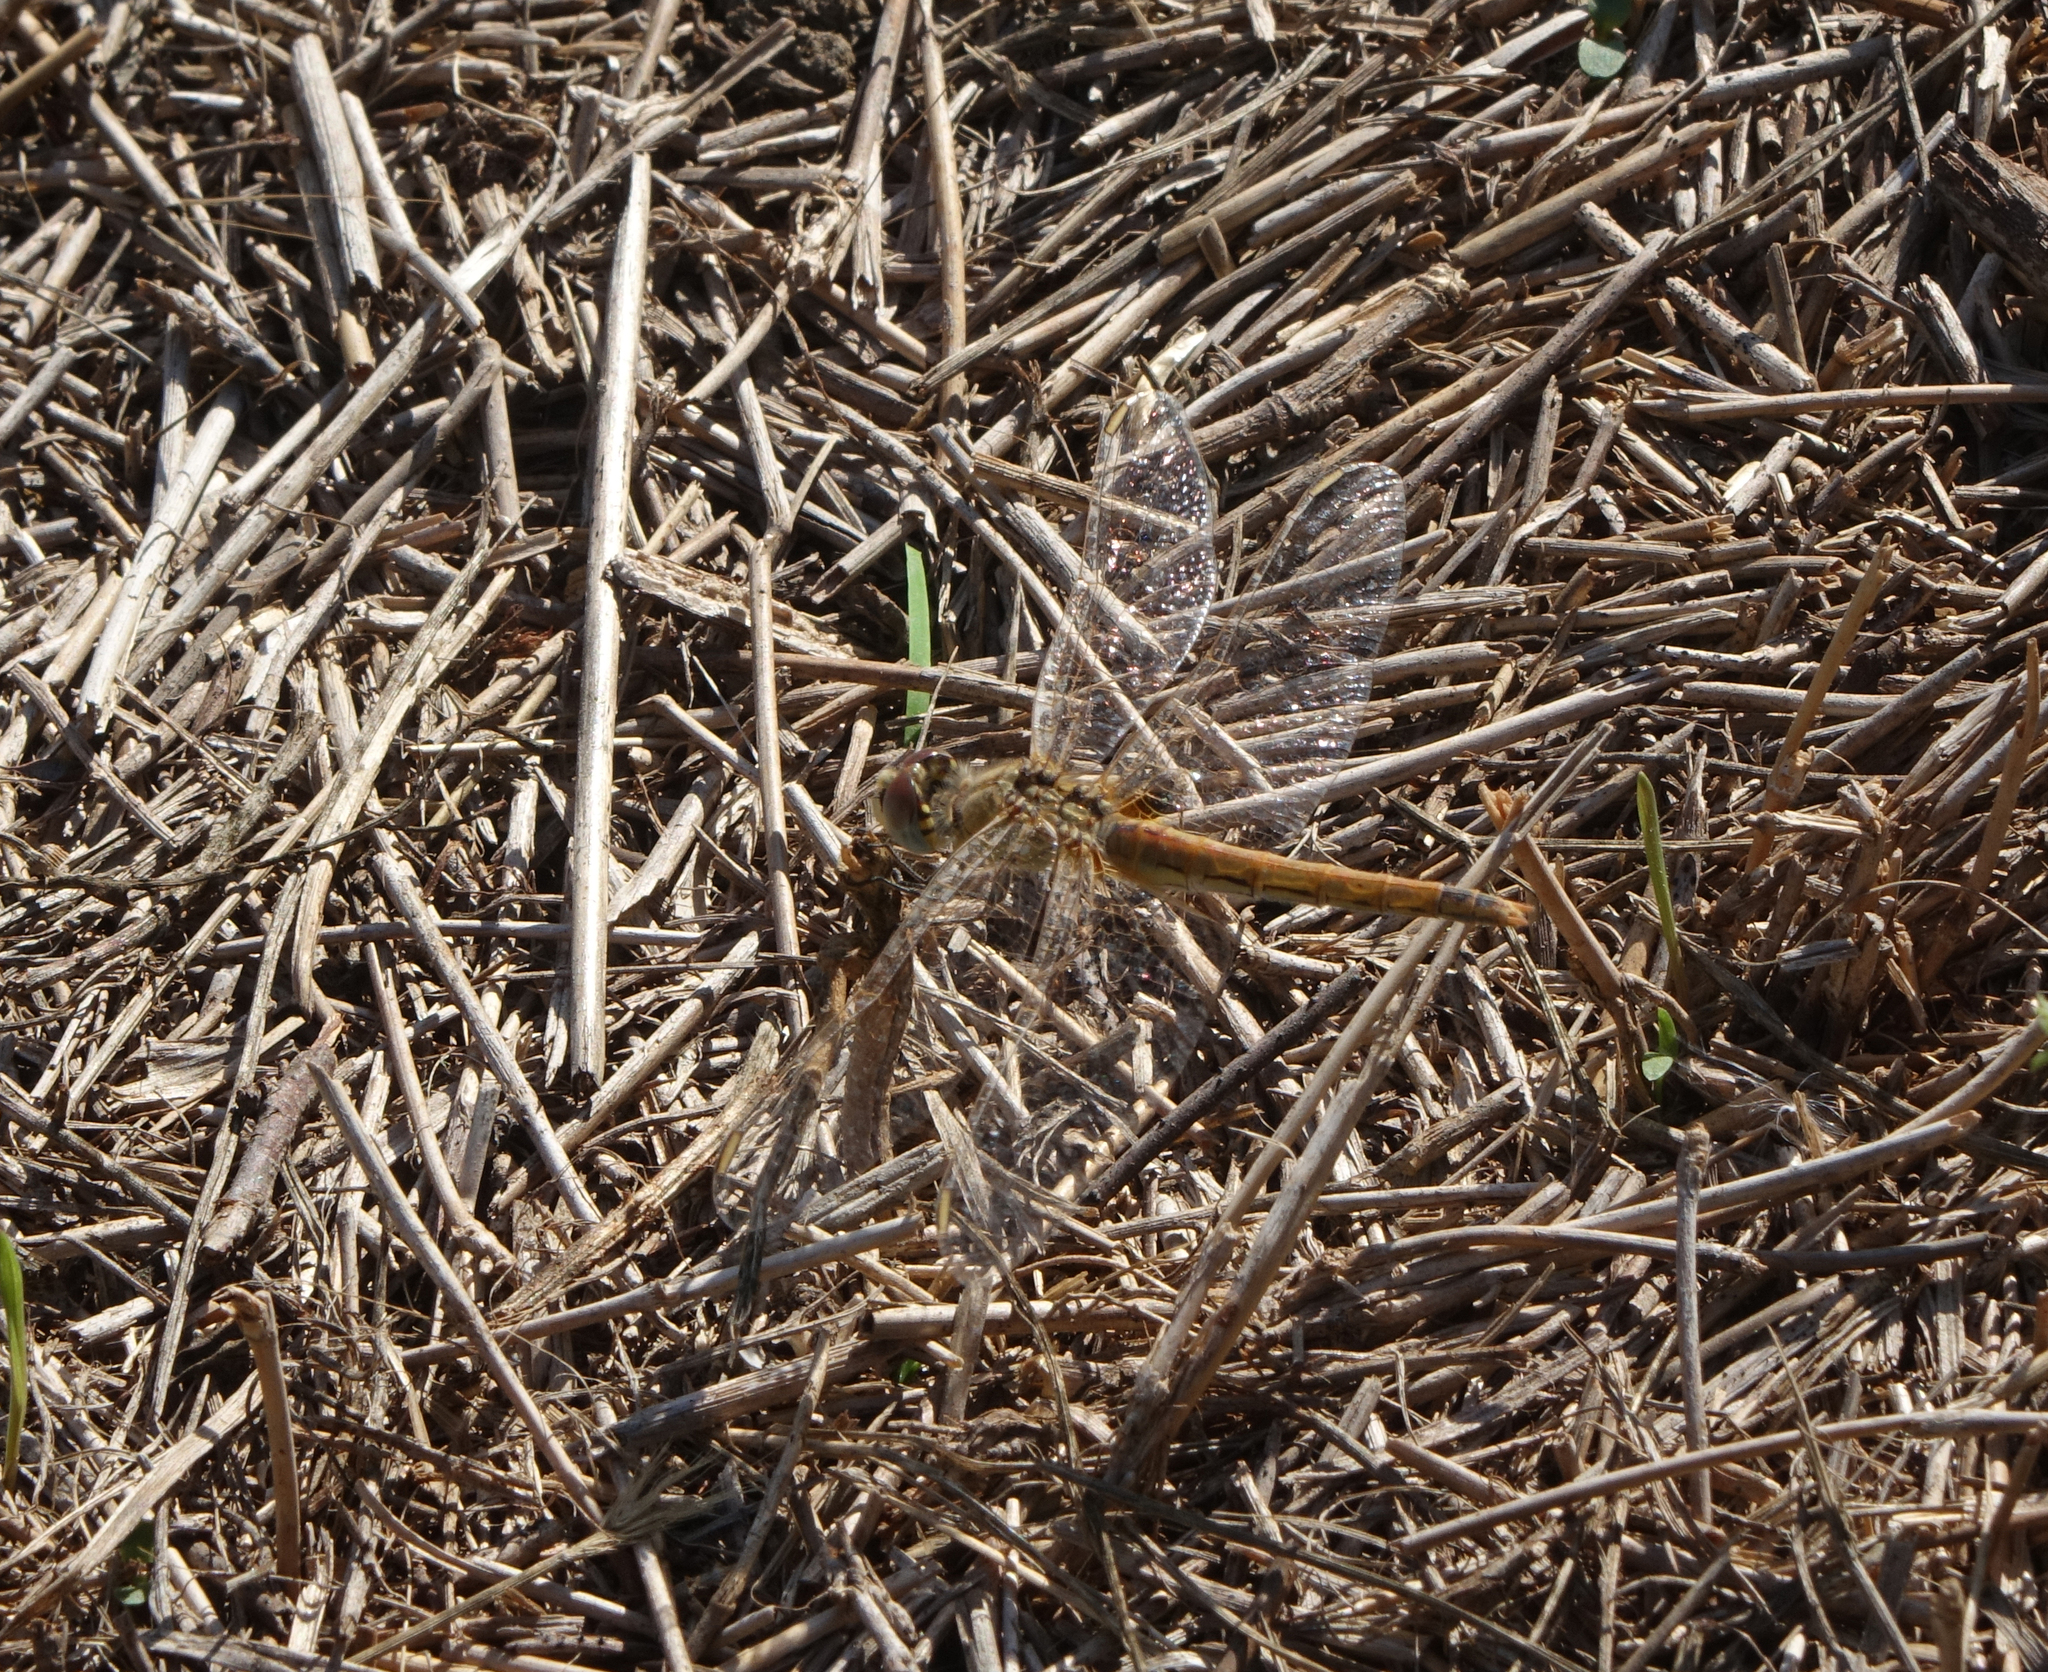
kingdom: Animalia
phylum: Arthropoda
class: Insecta
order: Odonata
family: Libellulidae
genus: Sympetrum
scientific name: Sympetrum fonscolombii
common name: Red-veined darter
